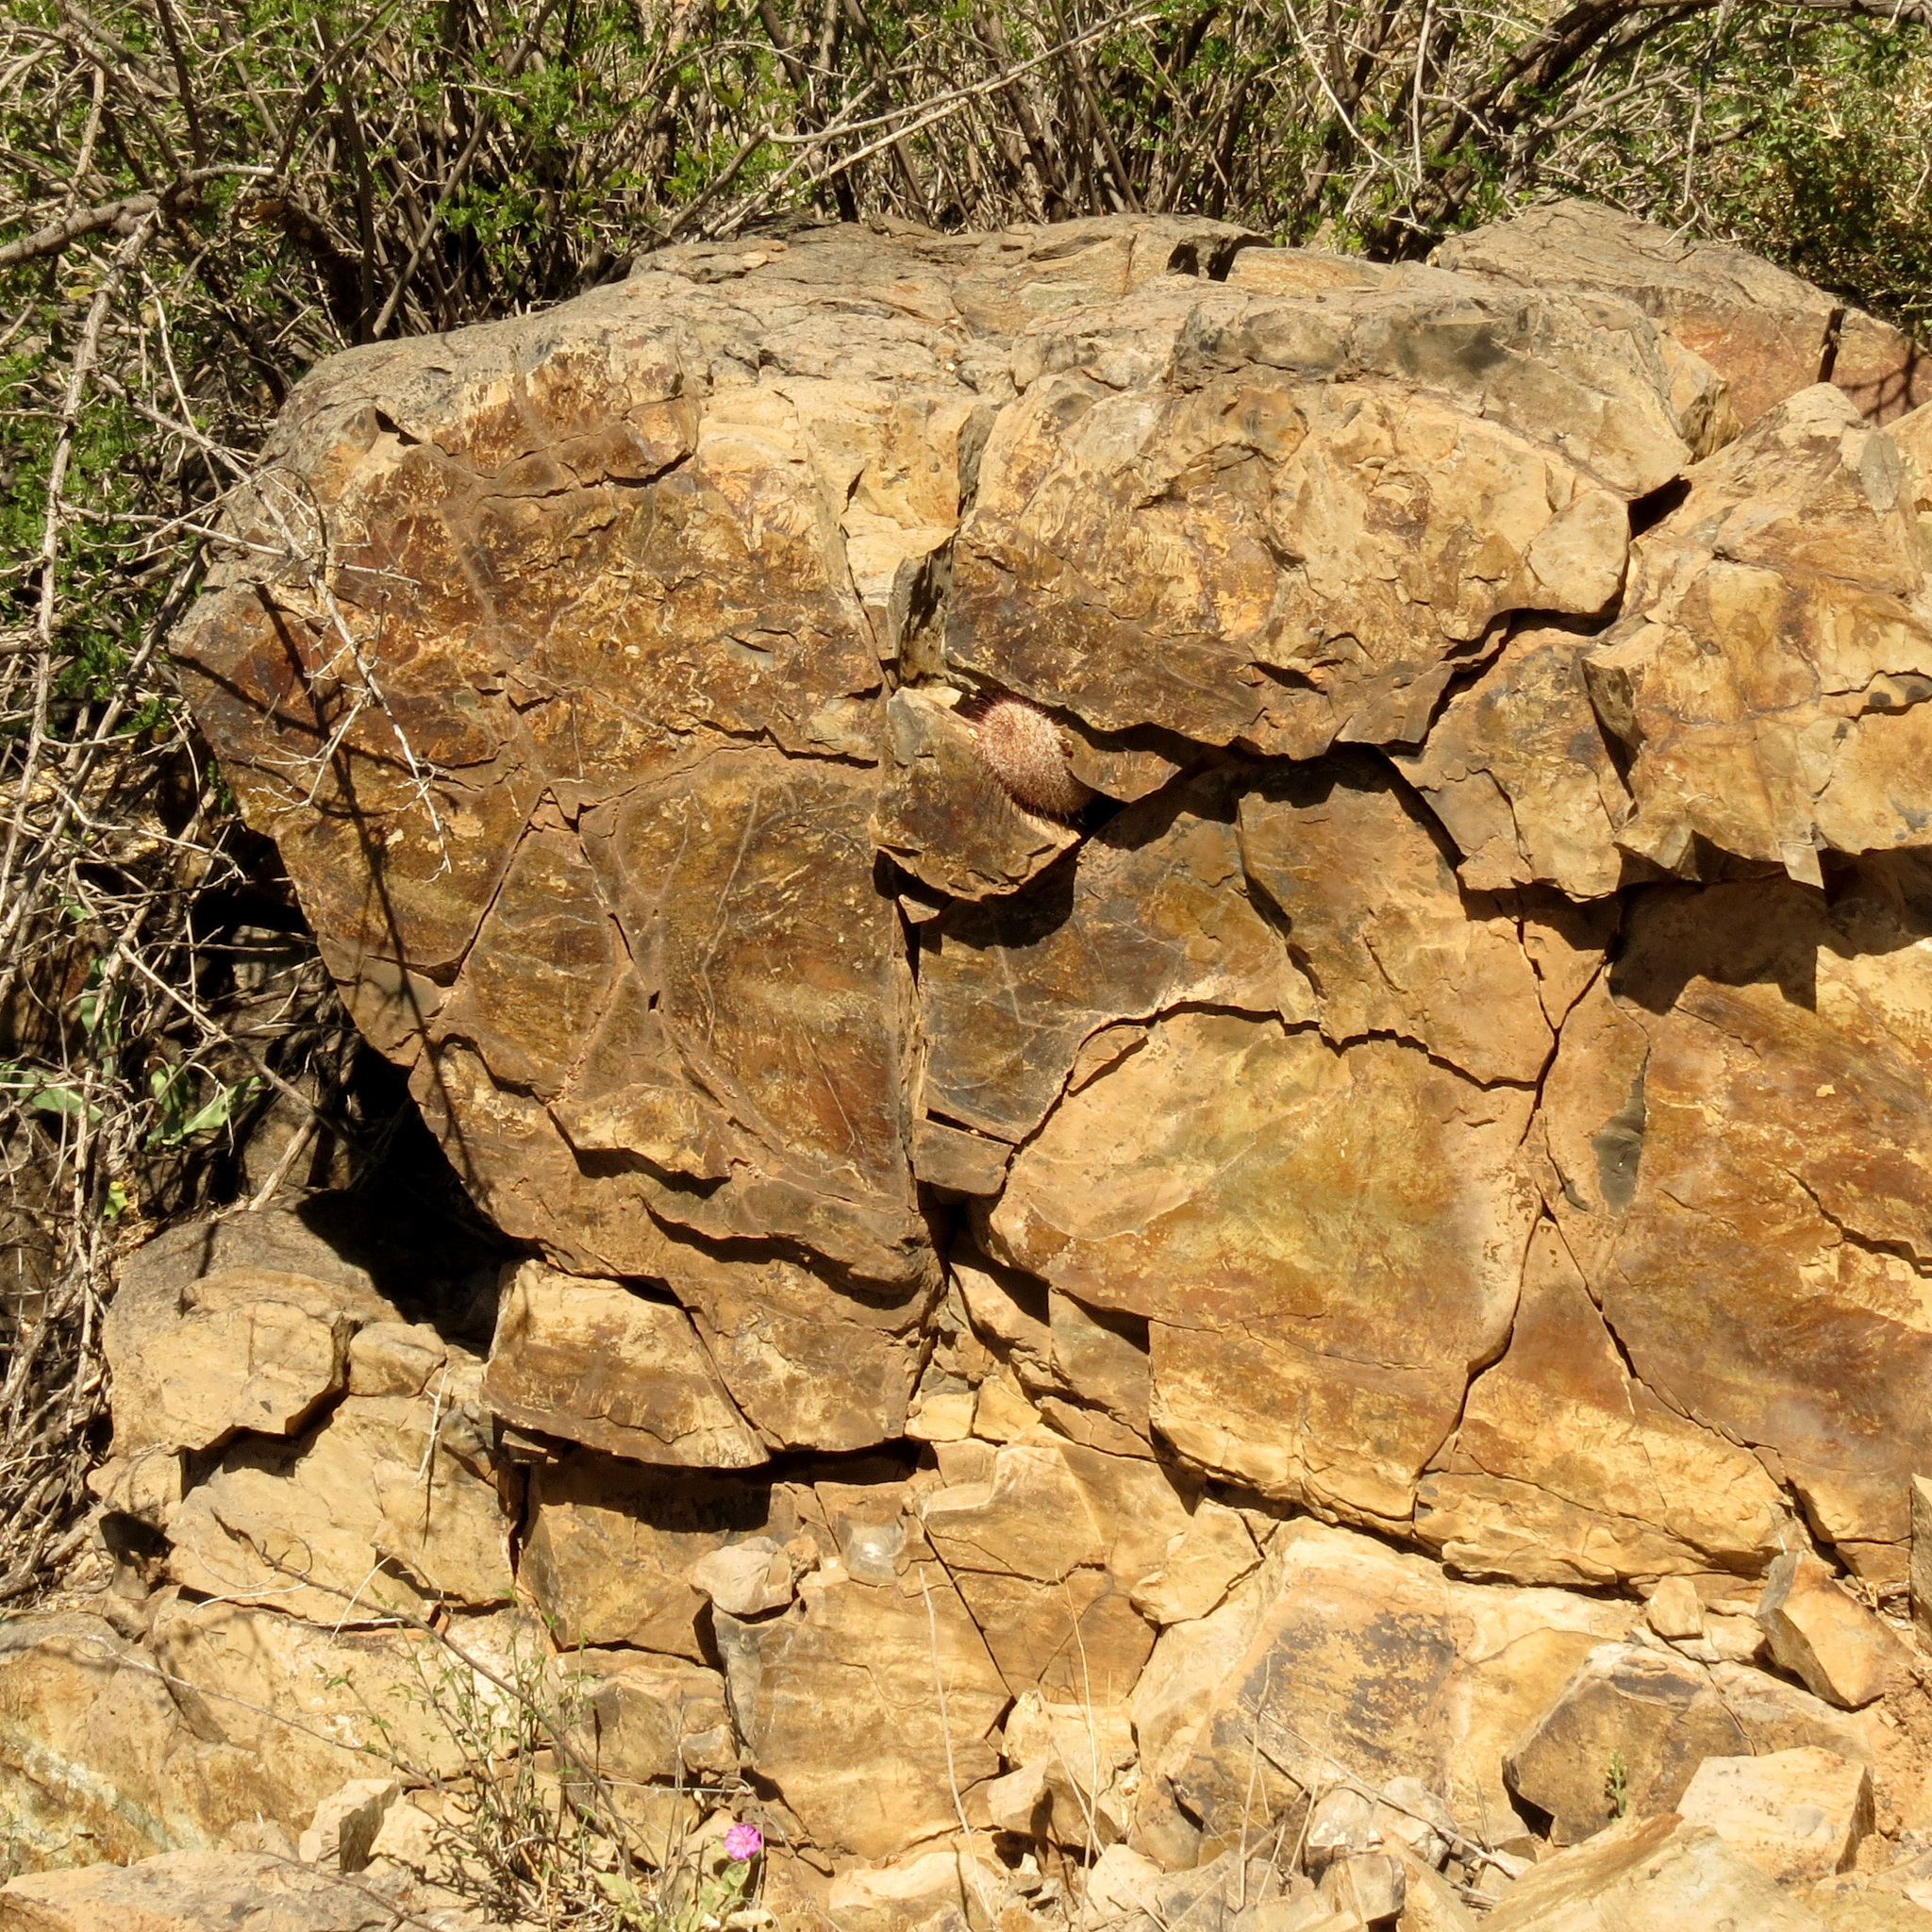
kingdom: Plantae
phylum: Tracheophyta
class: Magnoliopsida
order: Caryophyllales
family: Cactaceae
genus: Cochemiea
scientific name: Cochemiea grahamii
